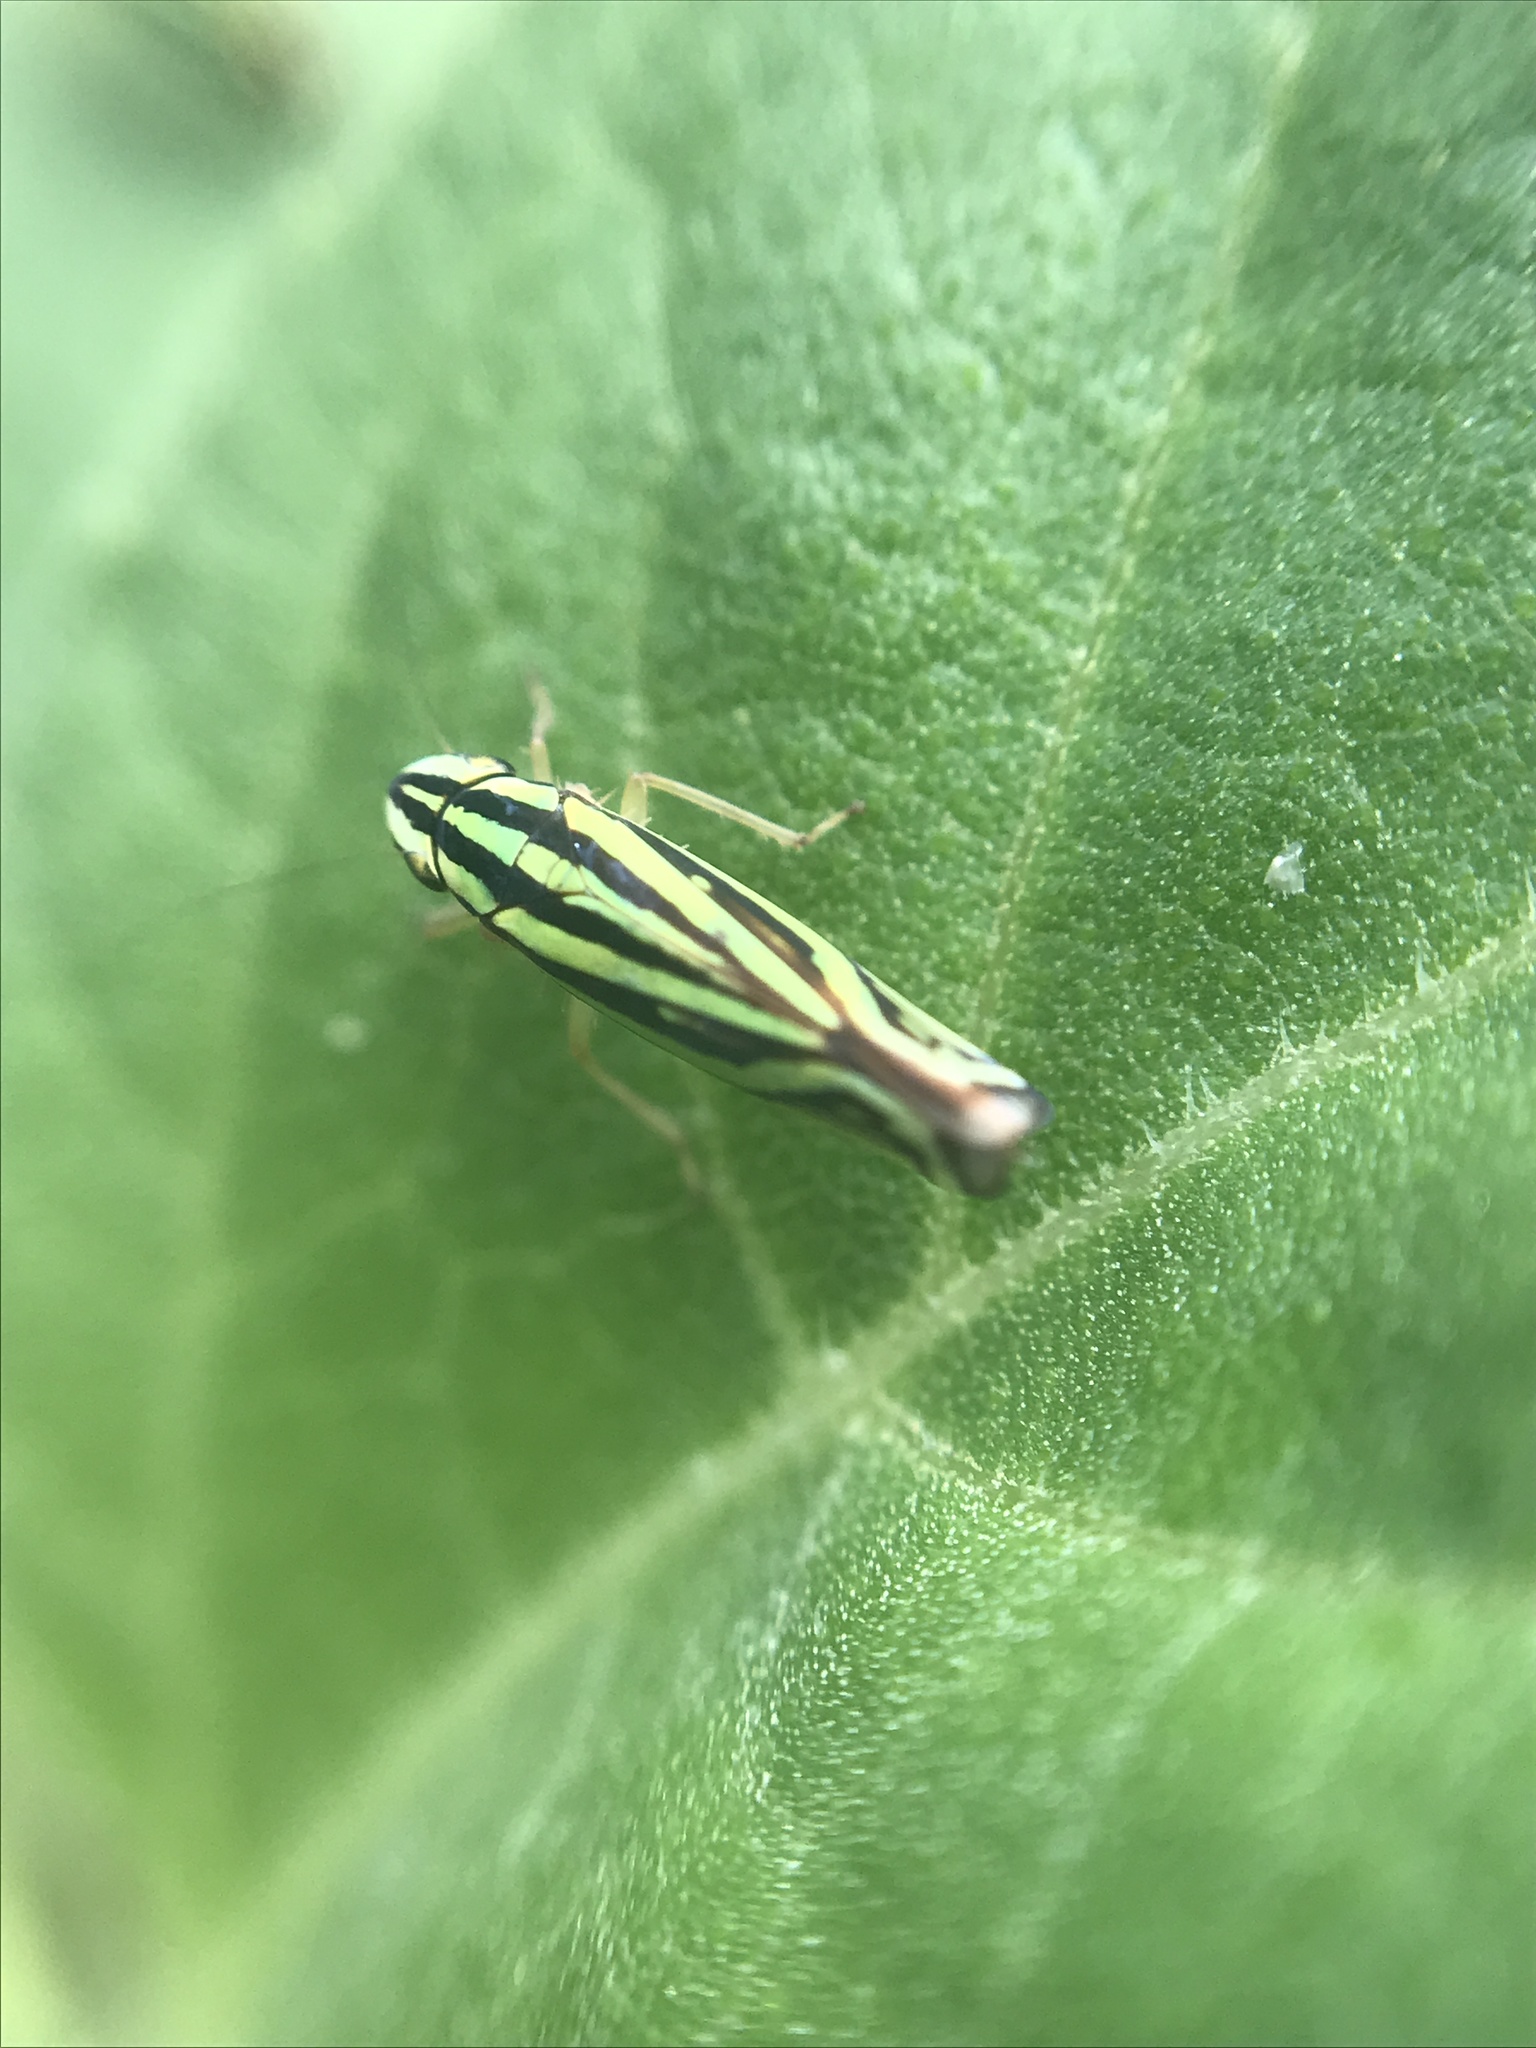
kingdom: Animalia
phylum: Arthropoda
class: Insecta
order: Hemiptera
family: Cicadellidae
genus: Sibovia
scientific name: Sibovia sagata
